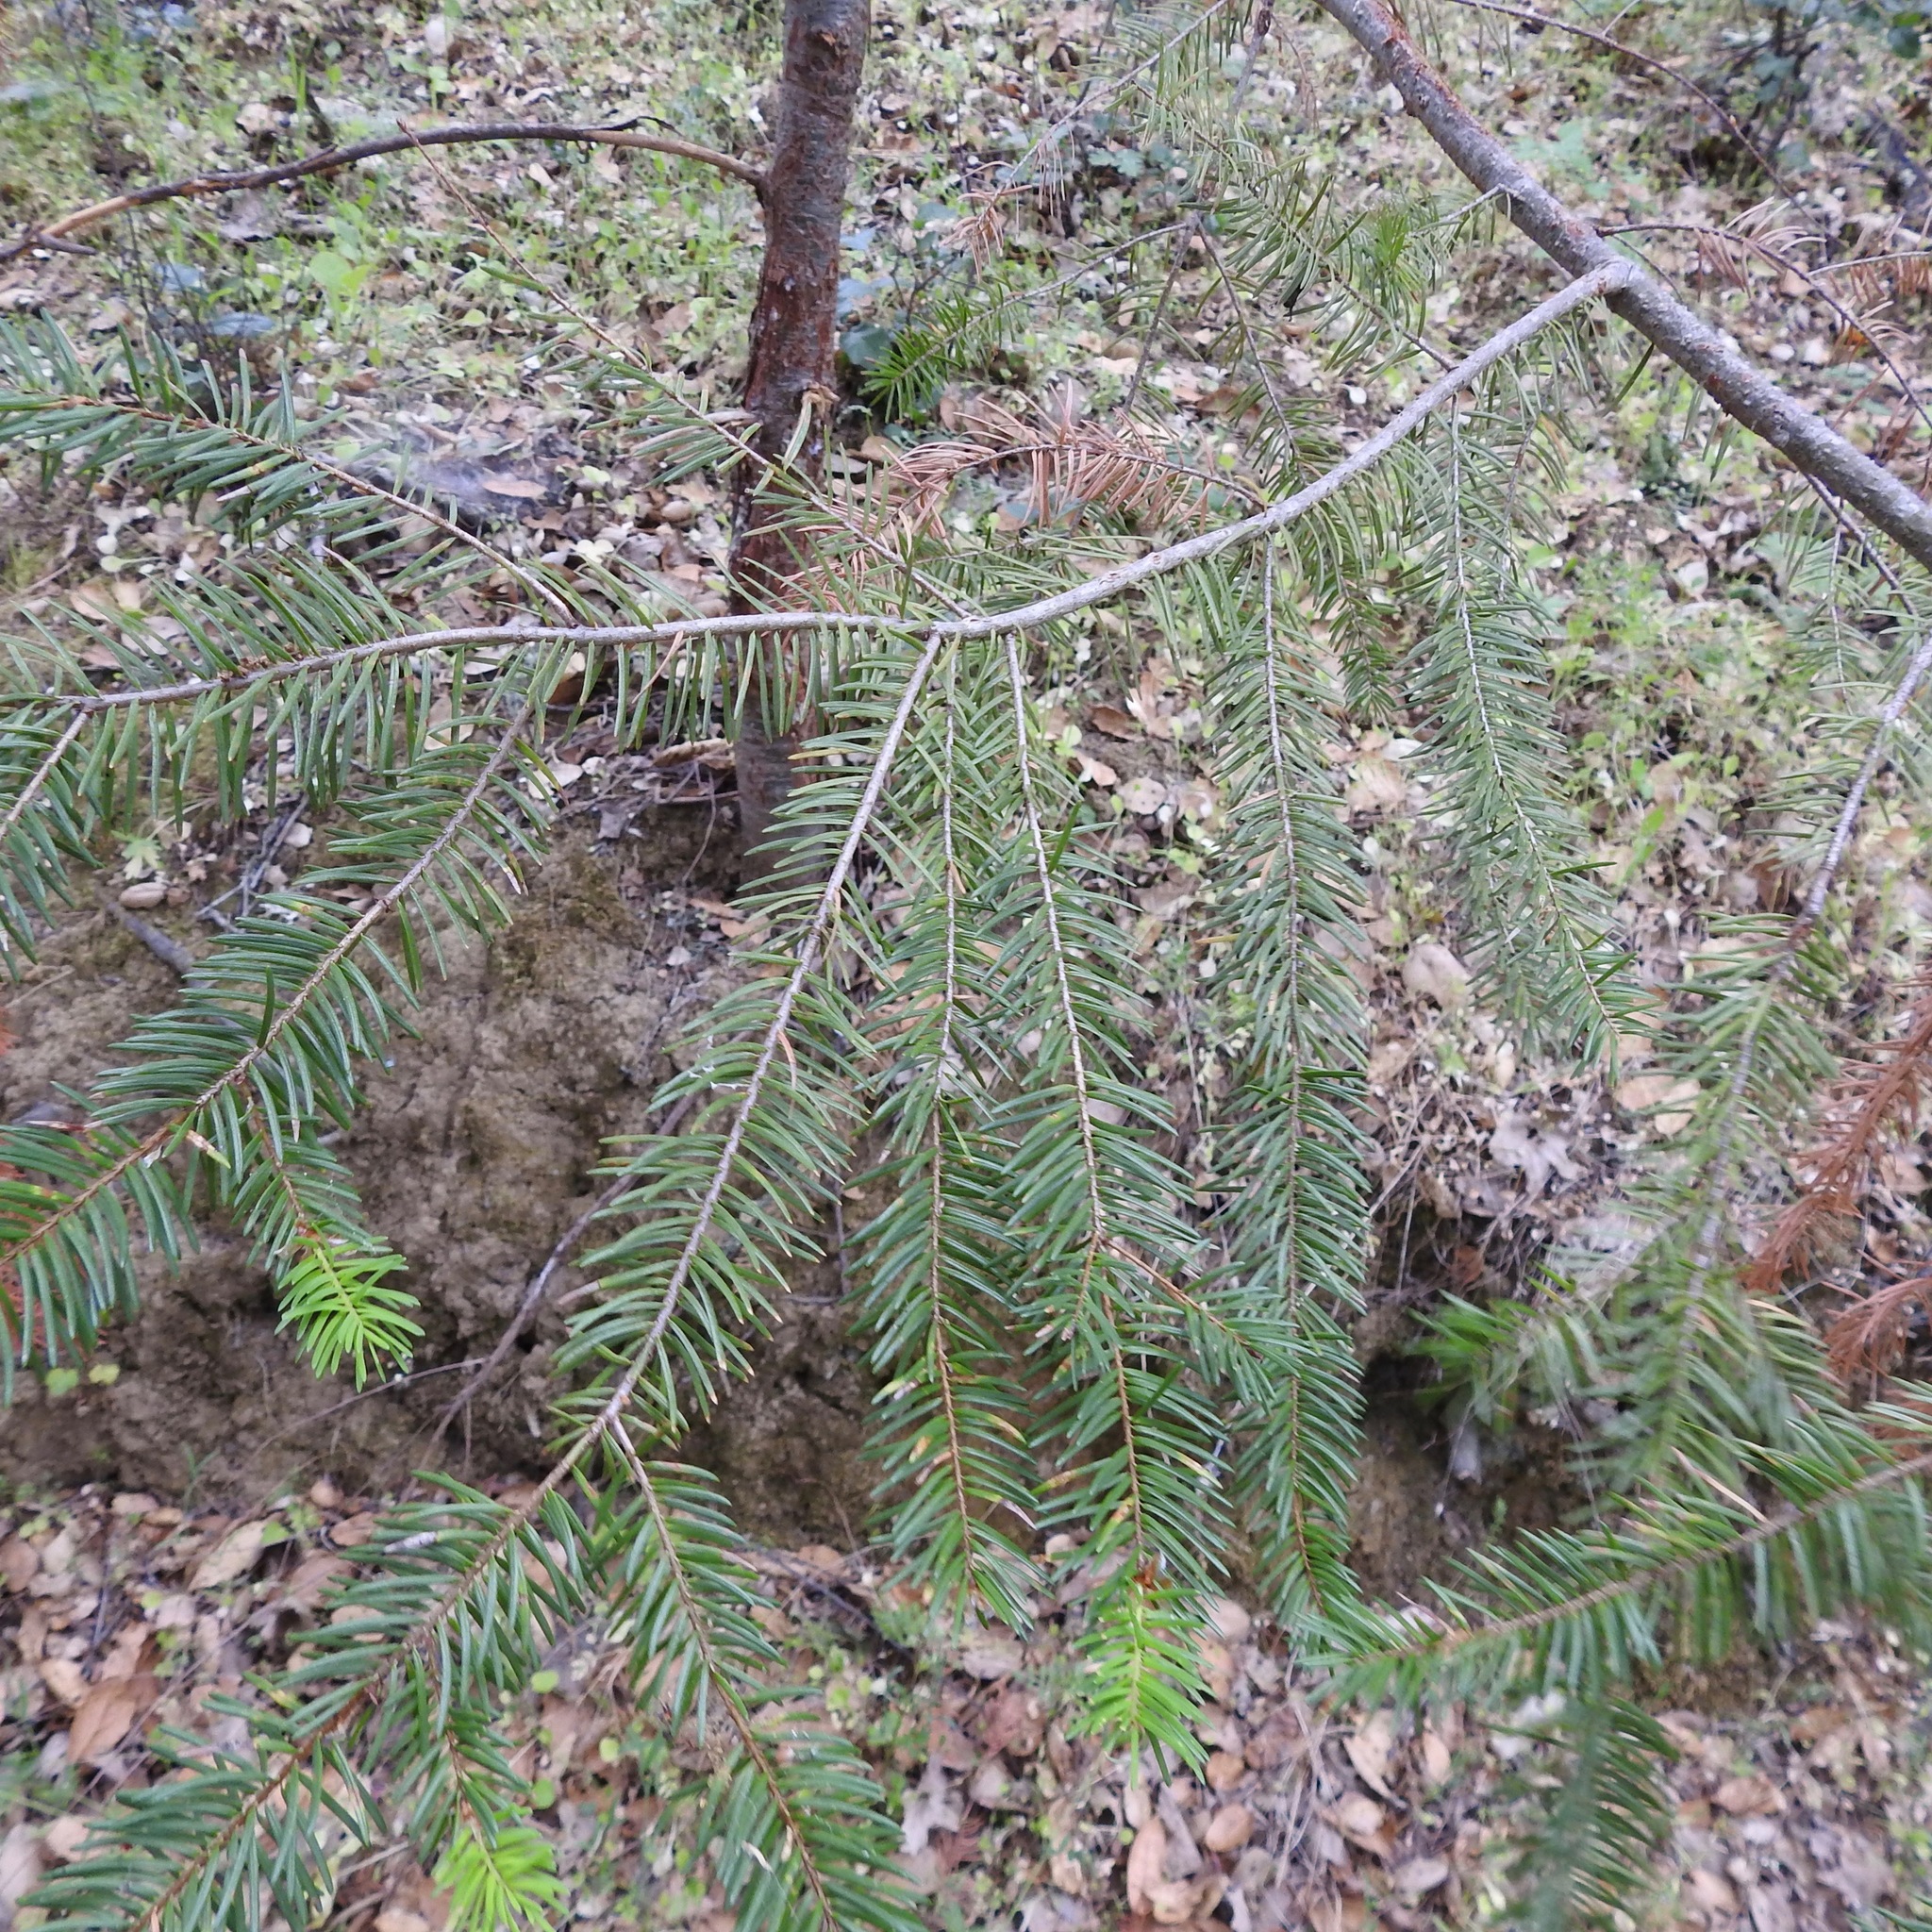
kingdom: Plantae
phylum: Tracheophyta
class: Pinopsida
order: Pinales
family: Pinaceae
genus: Pseudotsuga
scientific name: Pseudotsuga menziesii
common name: Douglas fir
